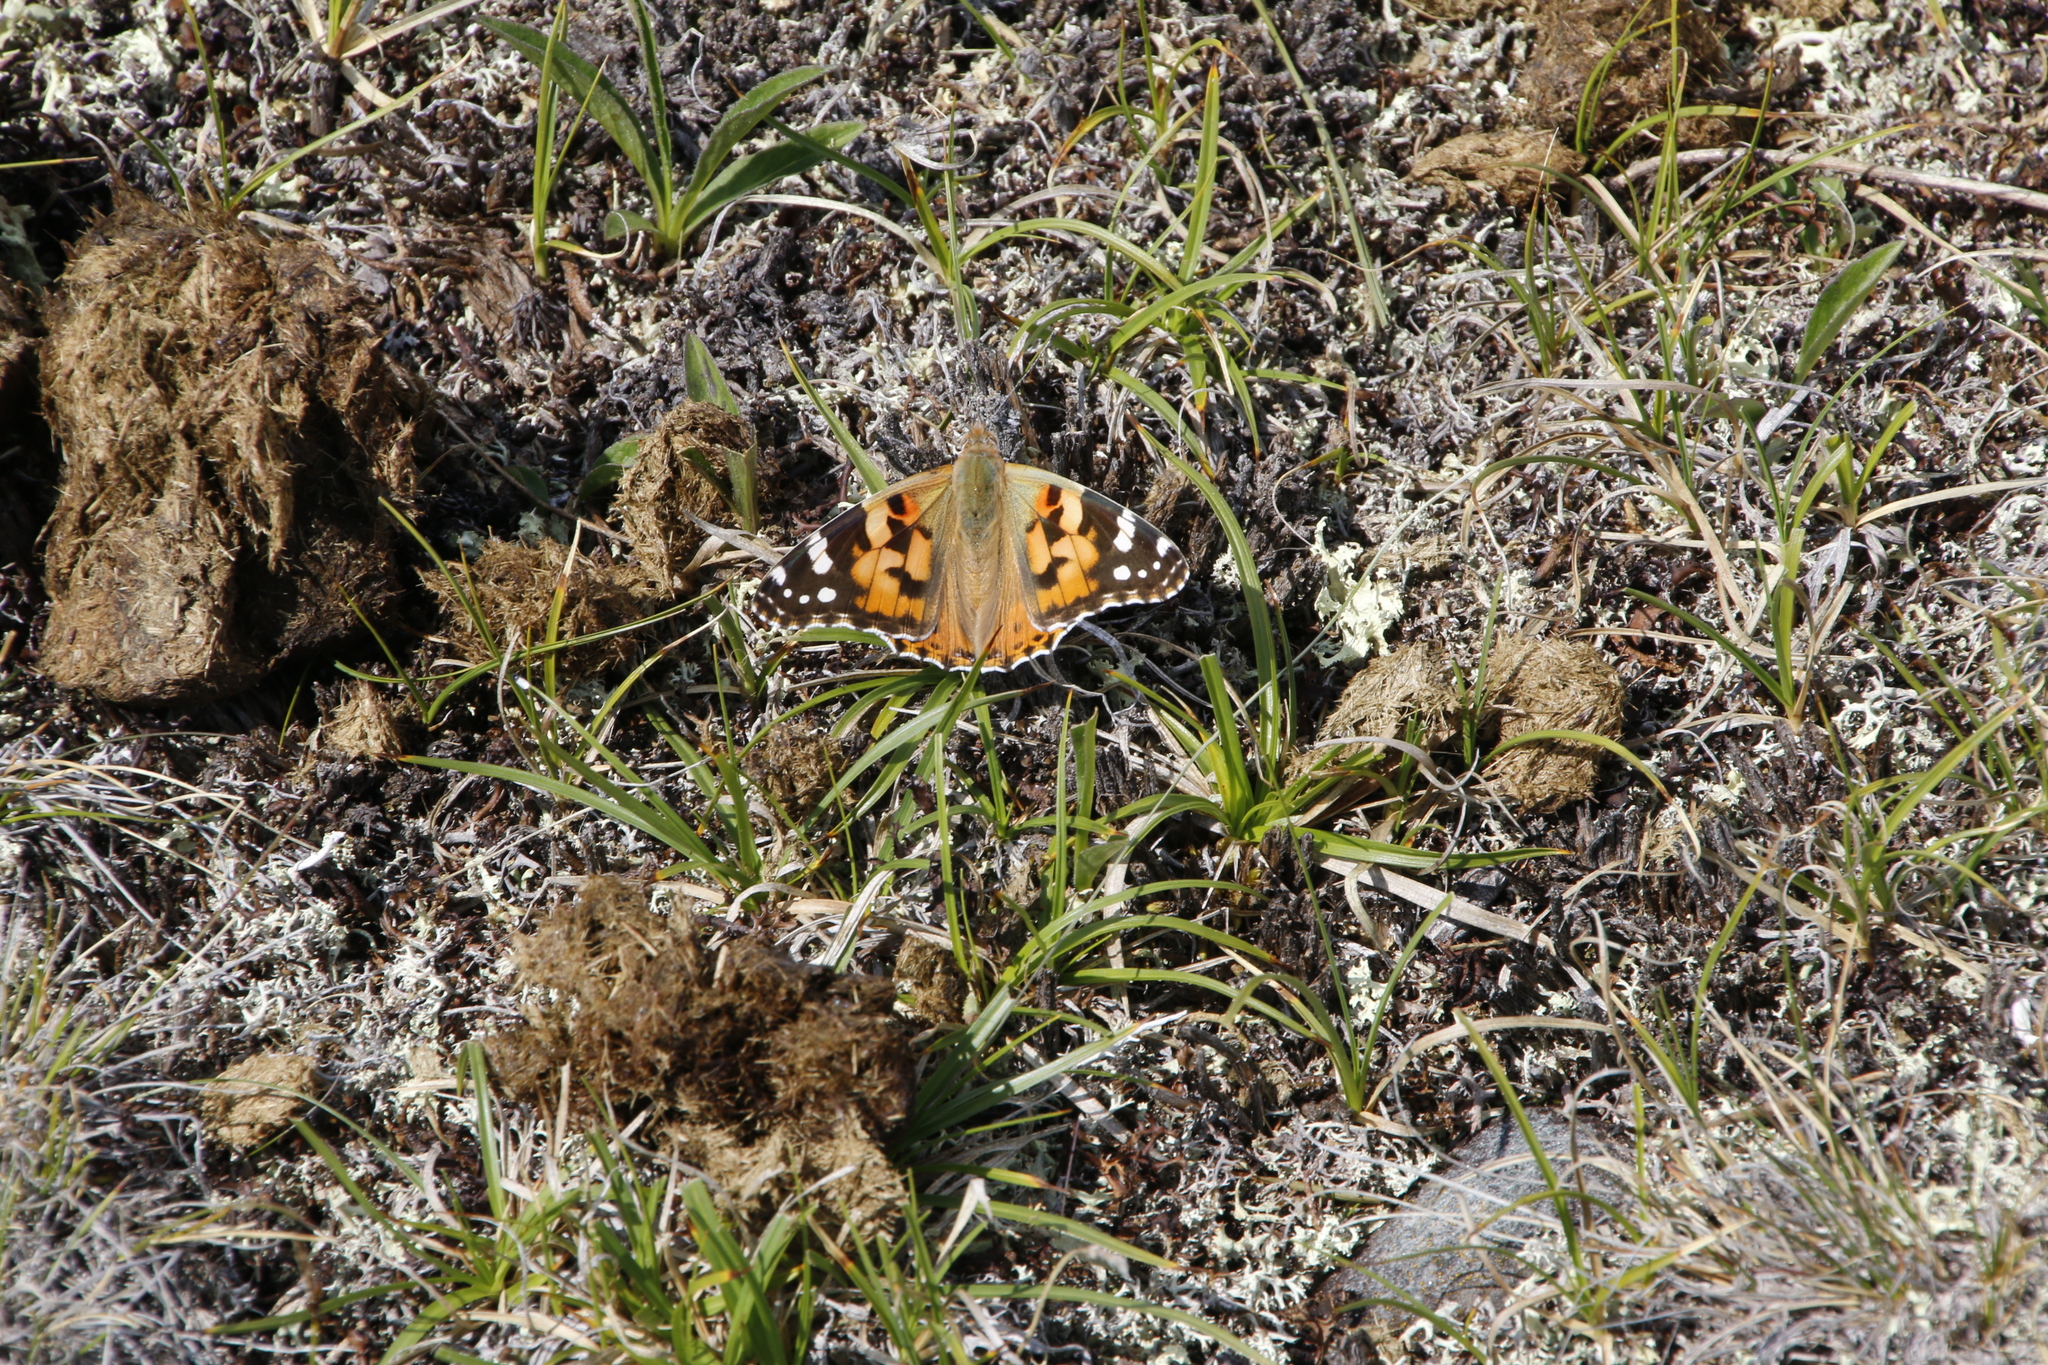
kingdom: Animalia
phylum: Arthropoda
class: Insecta
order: Lepidoptera
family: Nymphalidae
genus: Vanessa
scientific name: Vanessa cardui
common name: Painted lady
